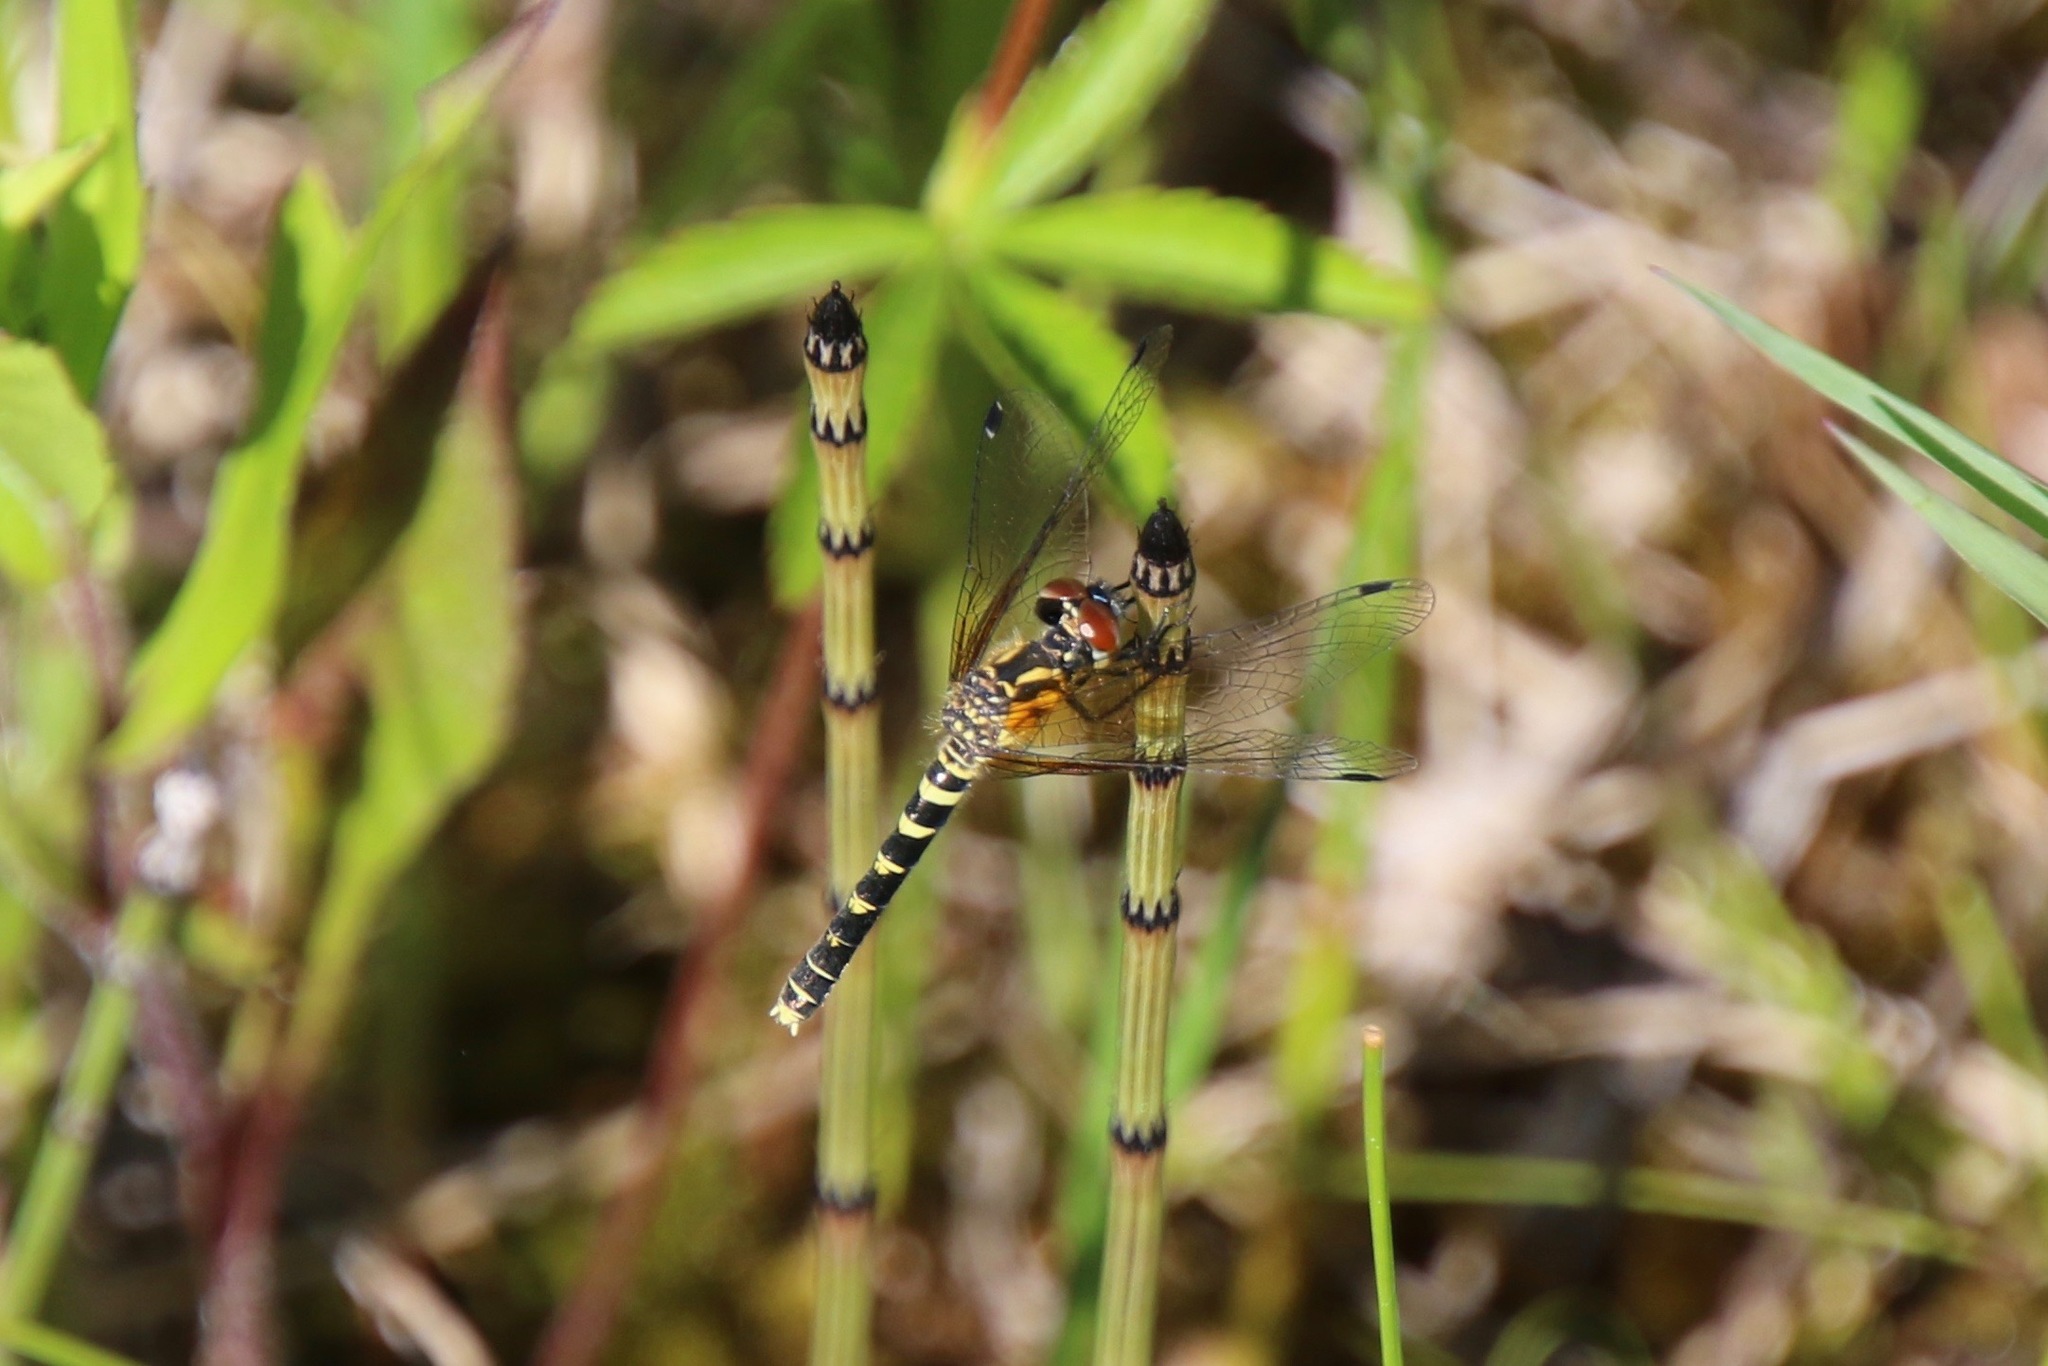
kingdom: Animalia
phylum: Arthropoda
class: Insecta
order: Odonata
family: Libellulidae
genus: Nannothemis
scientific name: Nannothemis bella
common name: Elfin skimmer
